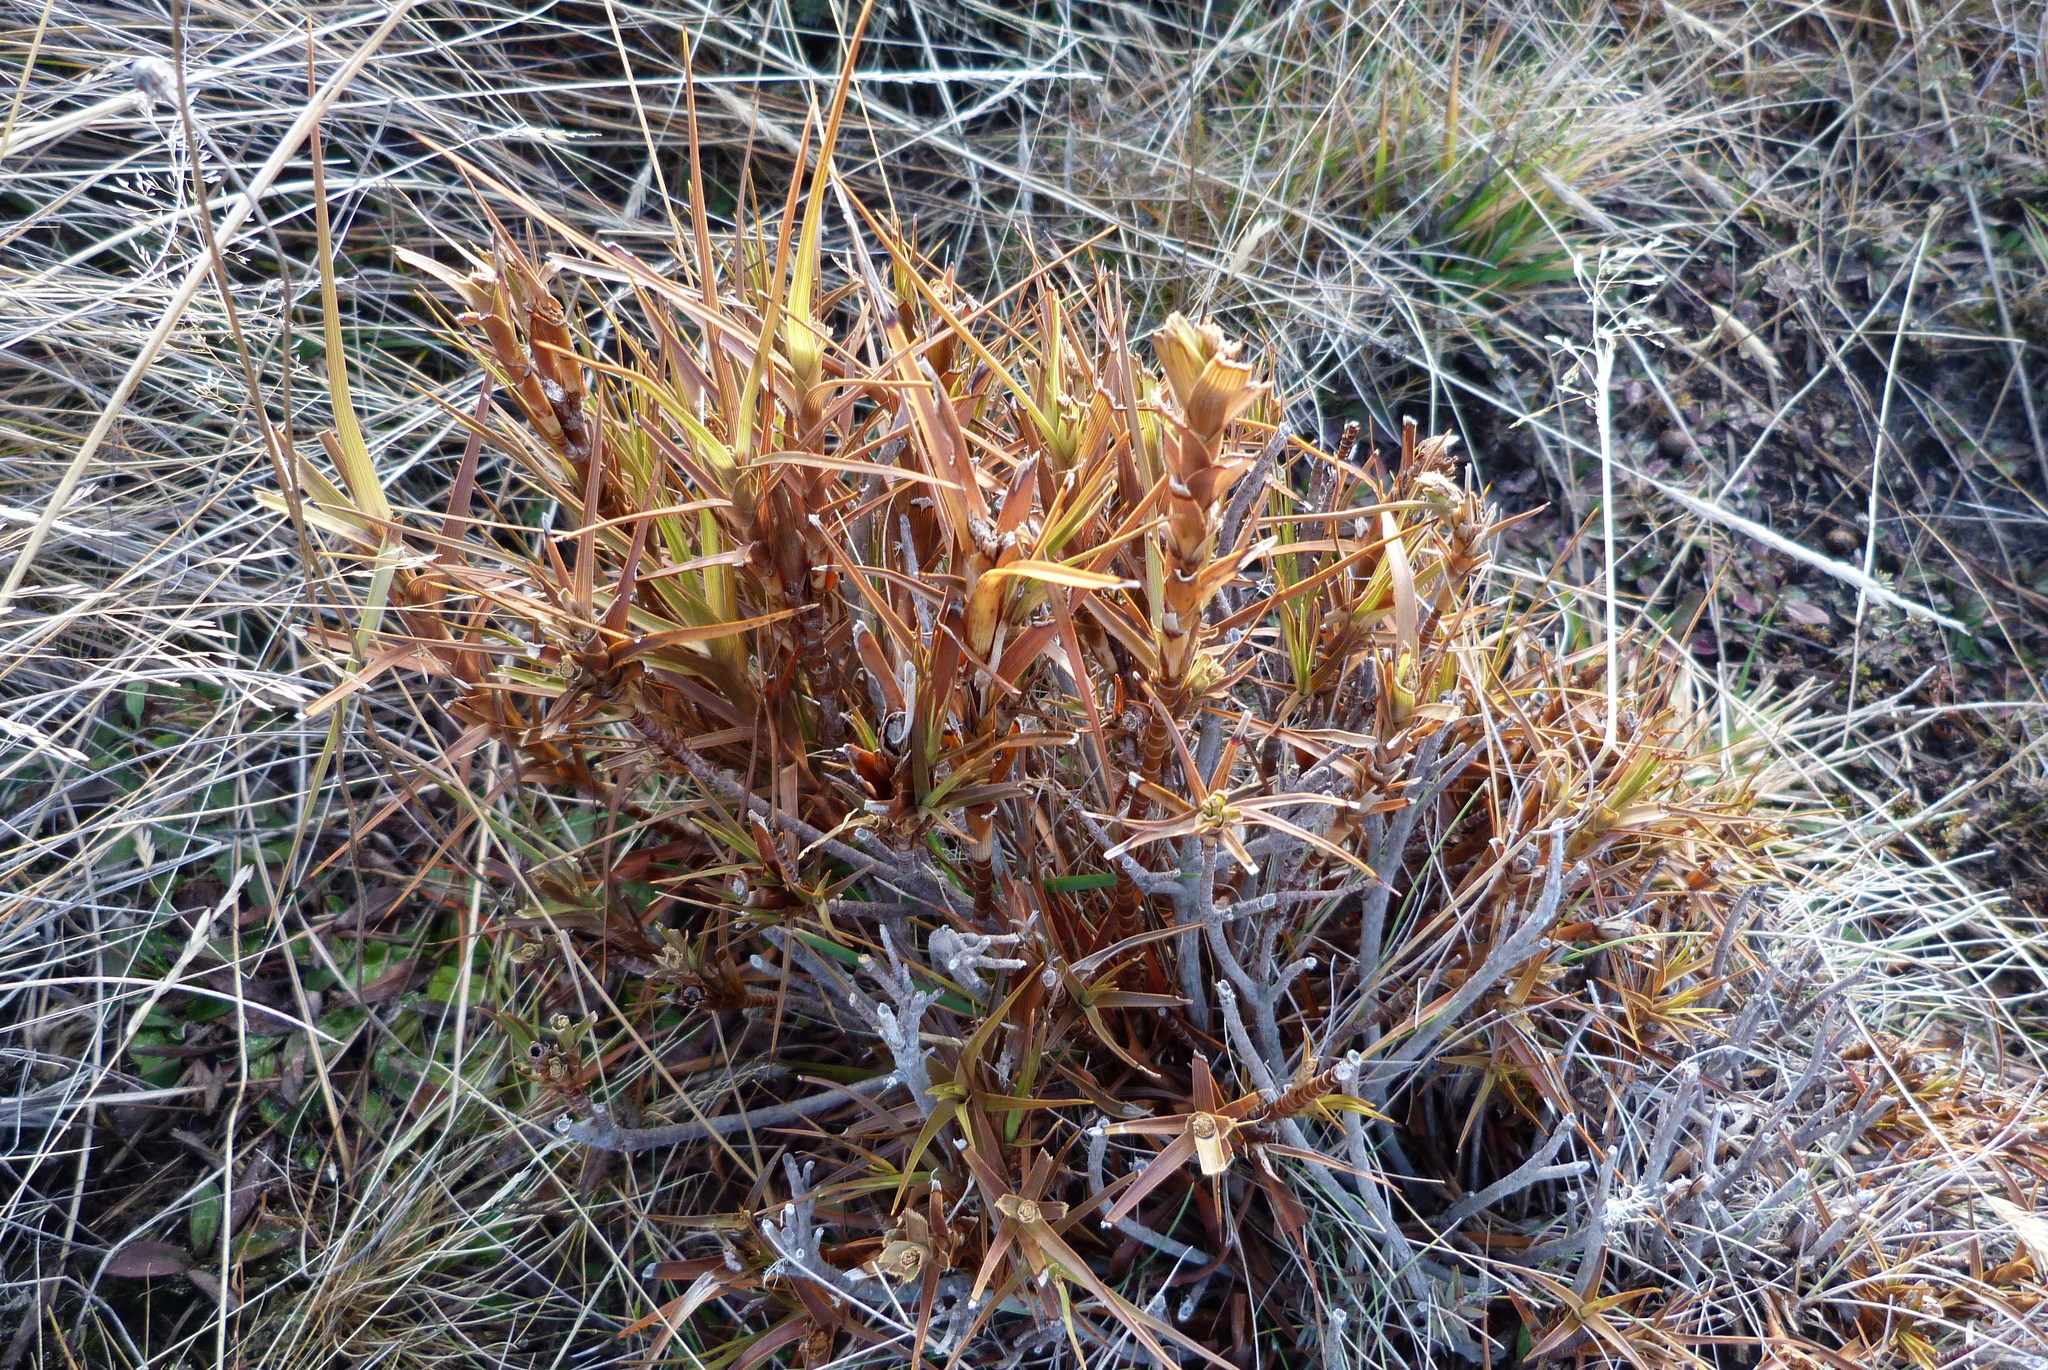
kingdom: Plantae
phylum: Tracheophyta
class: Magnoliopsida
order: Ericales
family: Ericaceae
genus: Dracophyllum
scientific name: Dracophyllum longifolium
